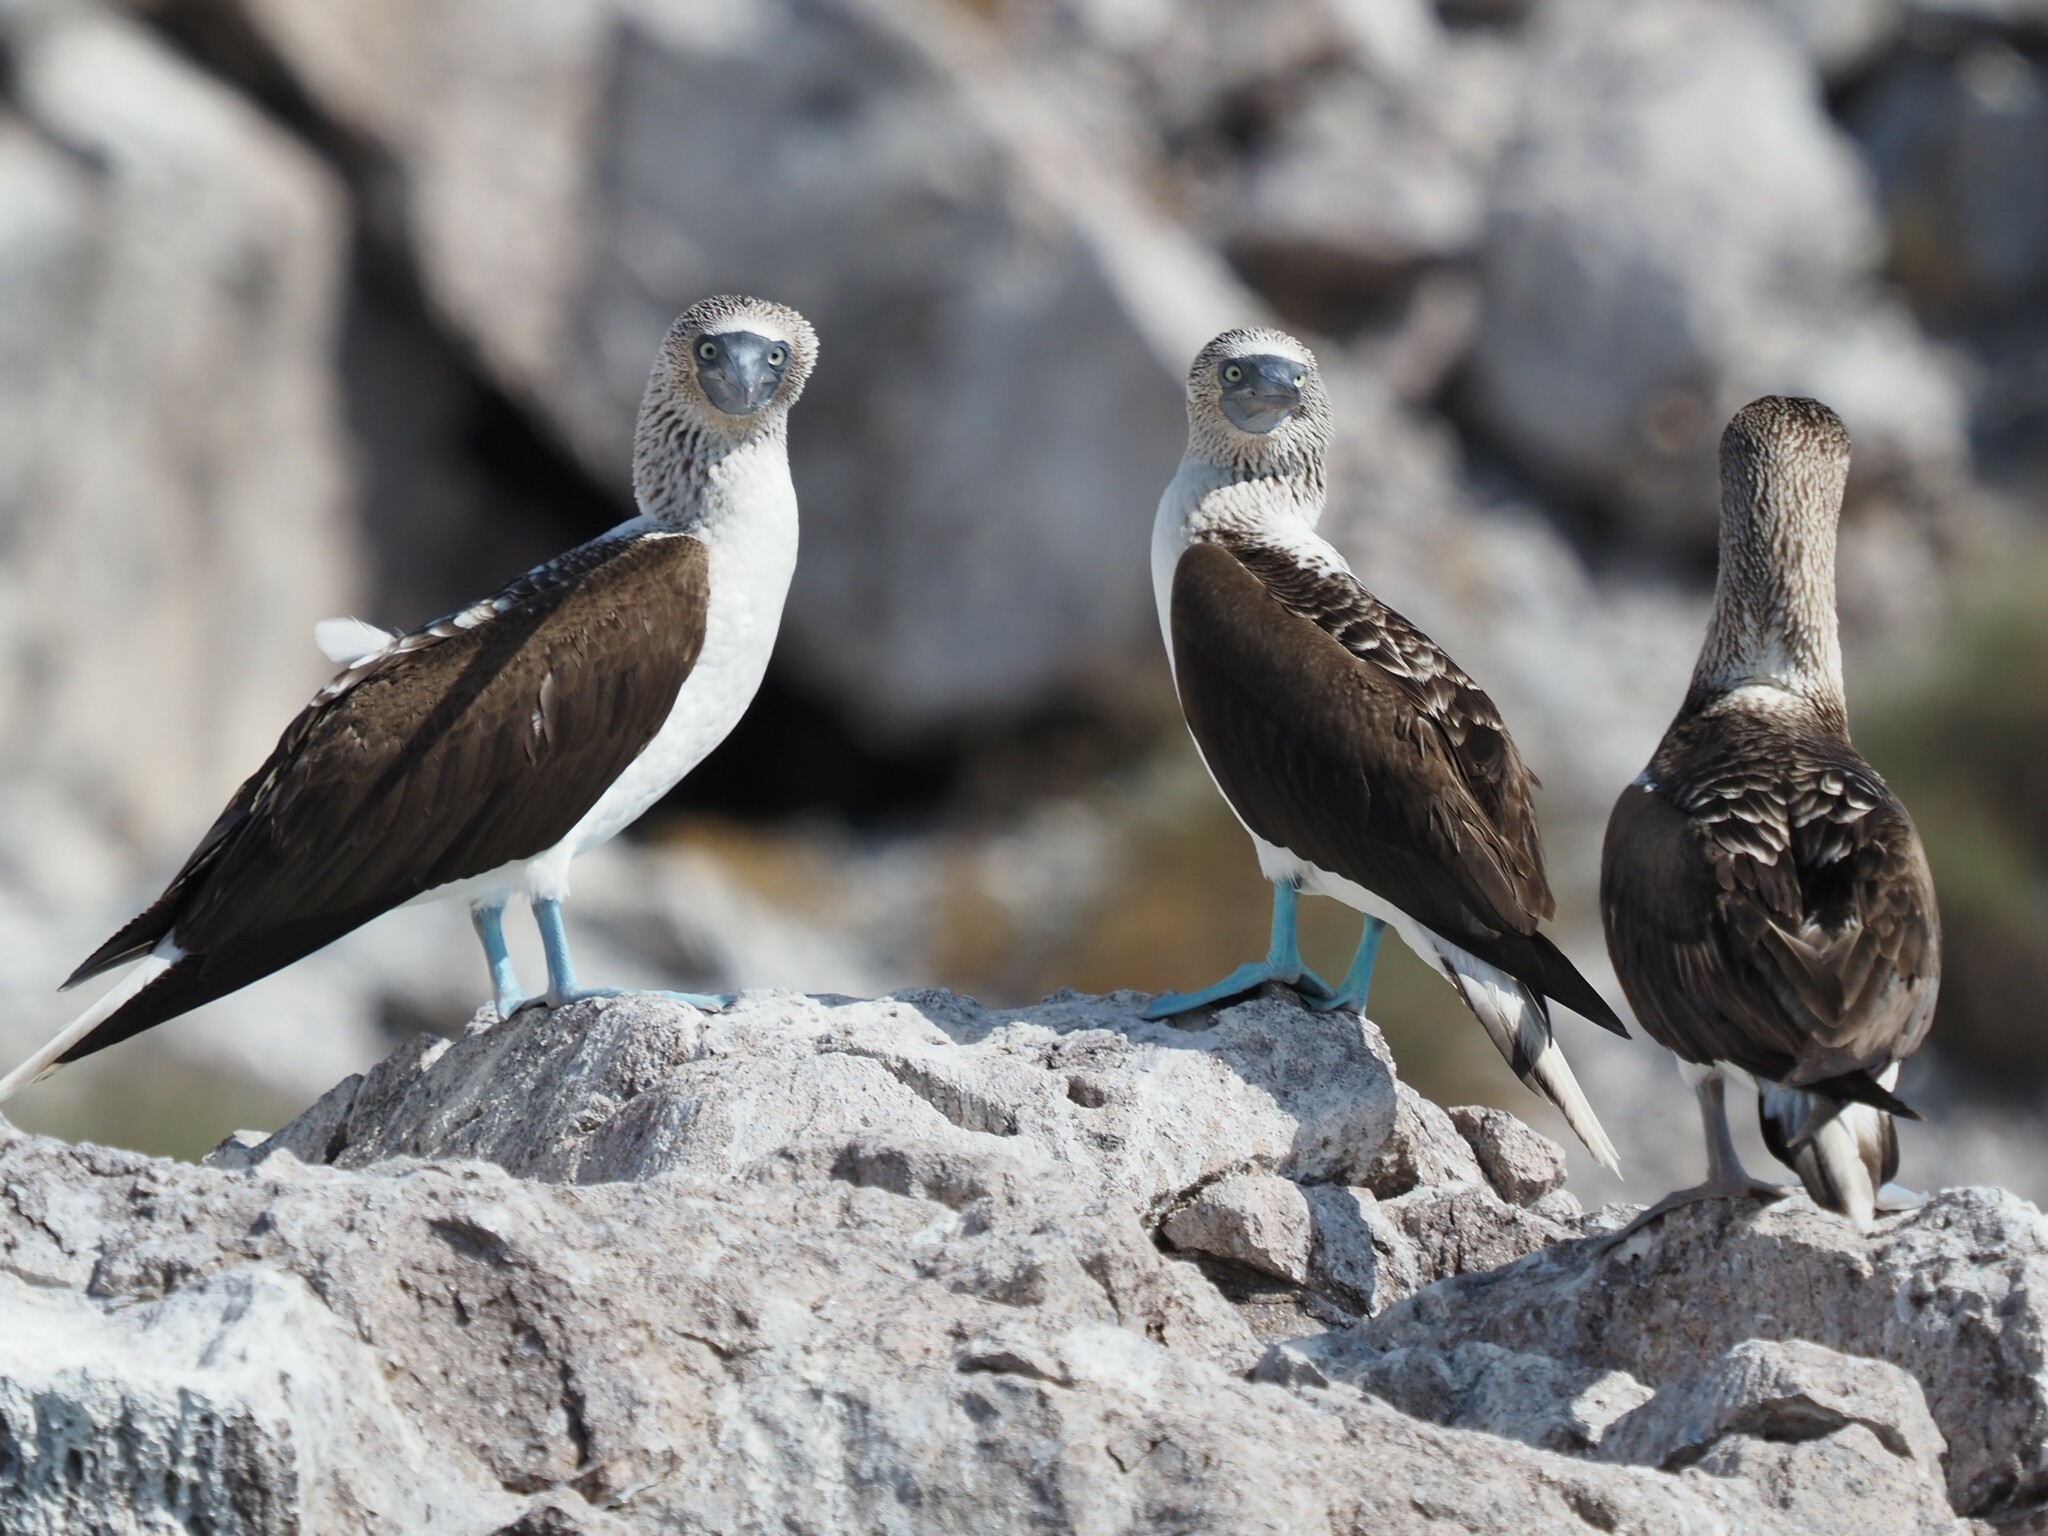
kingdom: Animalia
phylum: Chordata
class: Aves
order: Suliformes
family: Sulidae
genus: Sula
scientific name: Sula nebouxii
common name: Blue-footed booby
